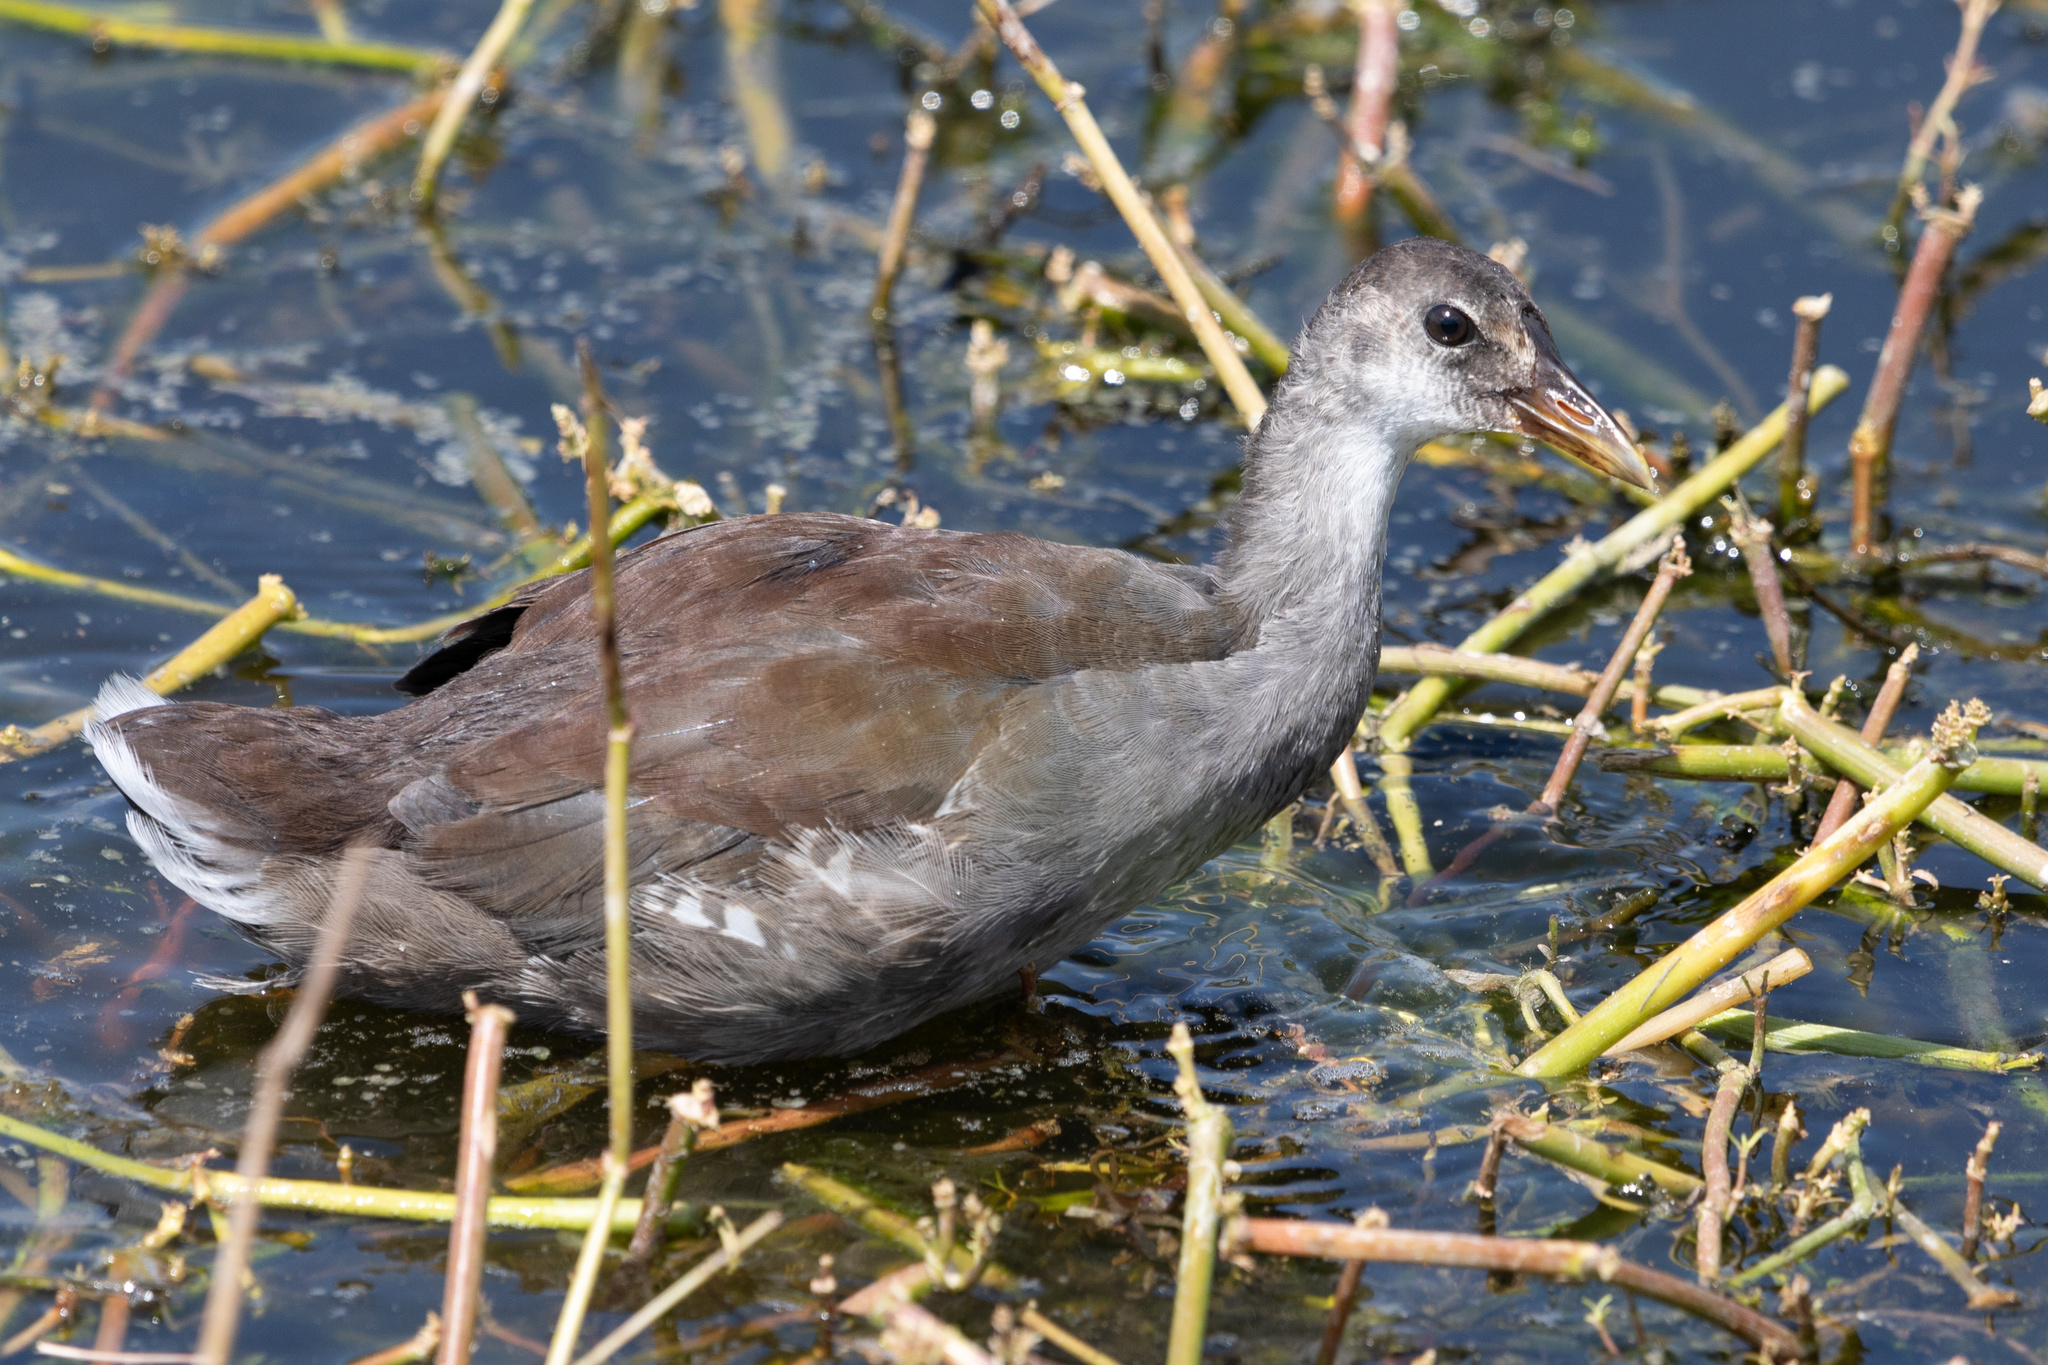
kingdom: Animalia
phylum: Chordata
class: Aves
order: Gruiformes
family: Rallidae
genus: Gallinula
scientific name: Gallinula chloropus
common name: Common moorhen
